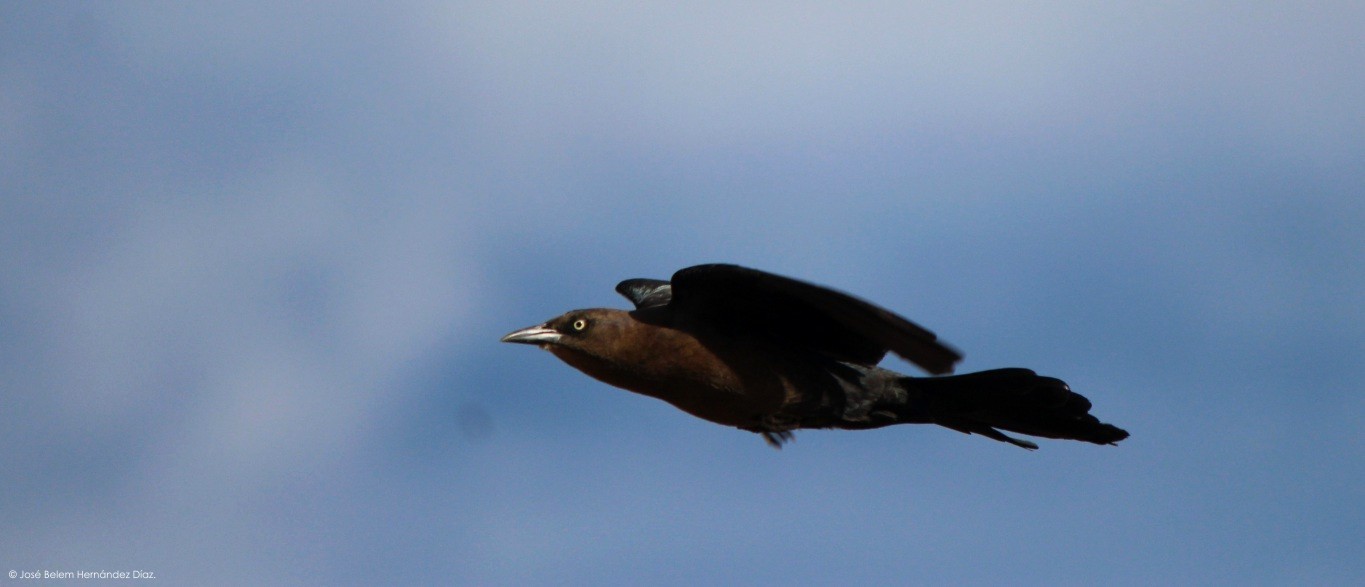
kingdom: Animalia
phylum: Chordata
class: Aves
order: Passeriformes
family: Icteridae
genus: Quiscalus
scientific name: Quiscalus mexicanus
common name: Great-tailed grackle
